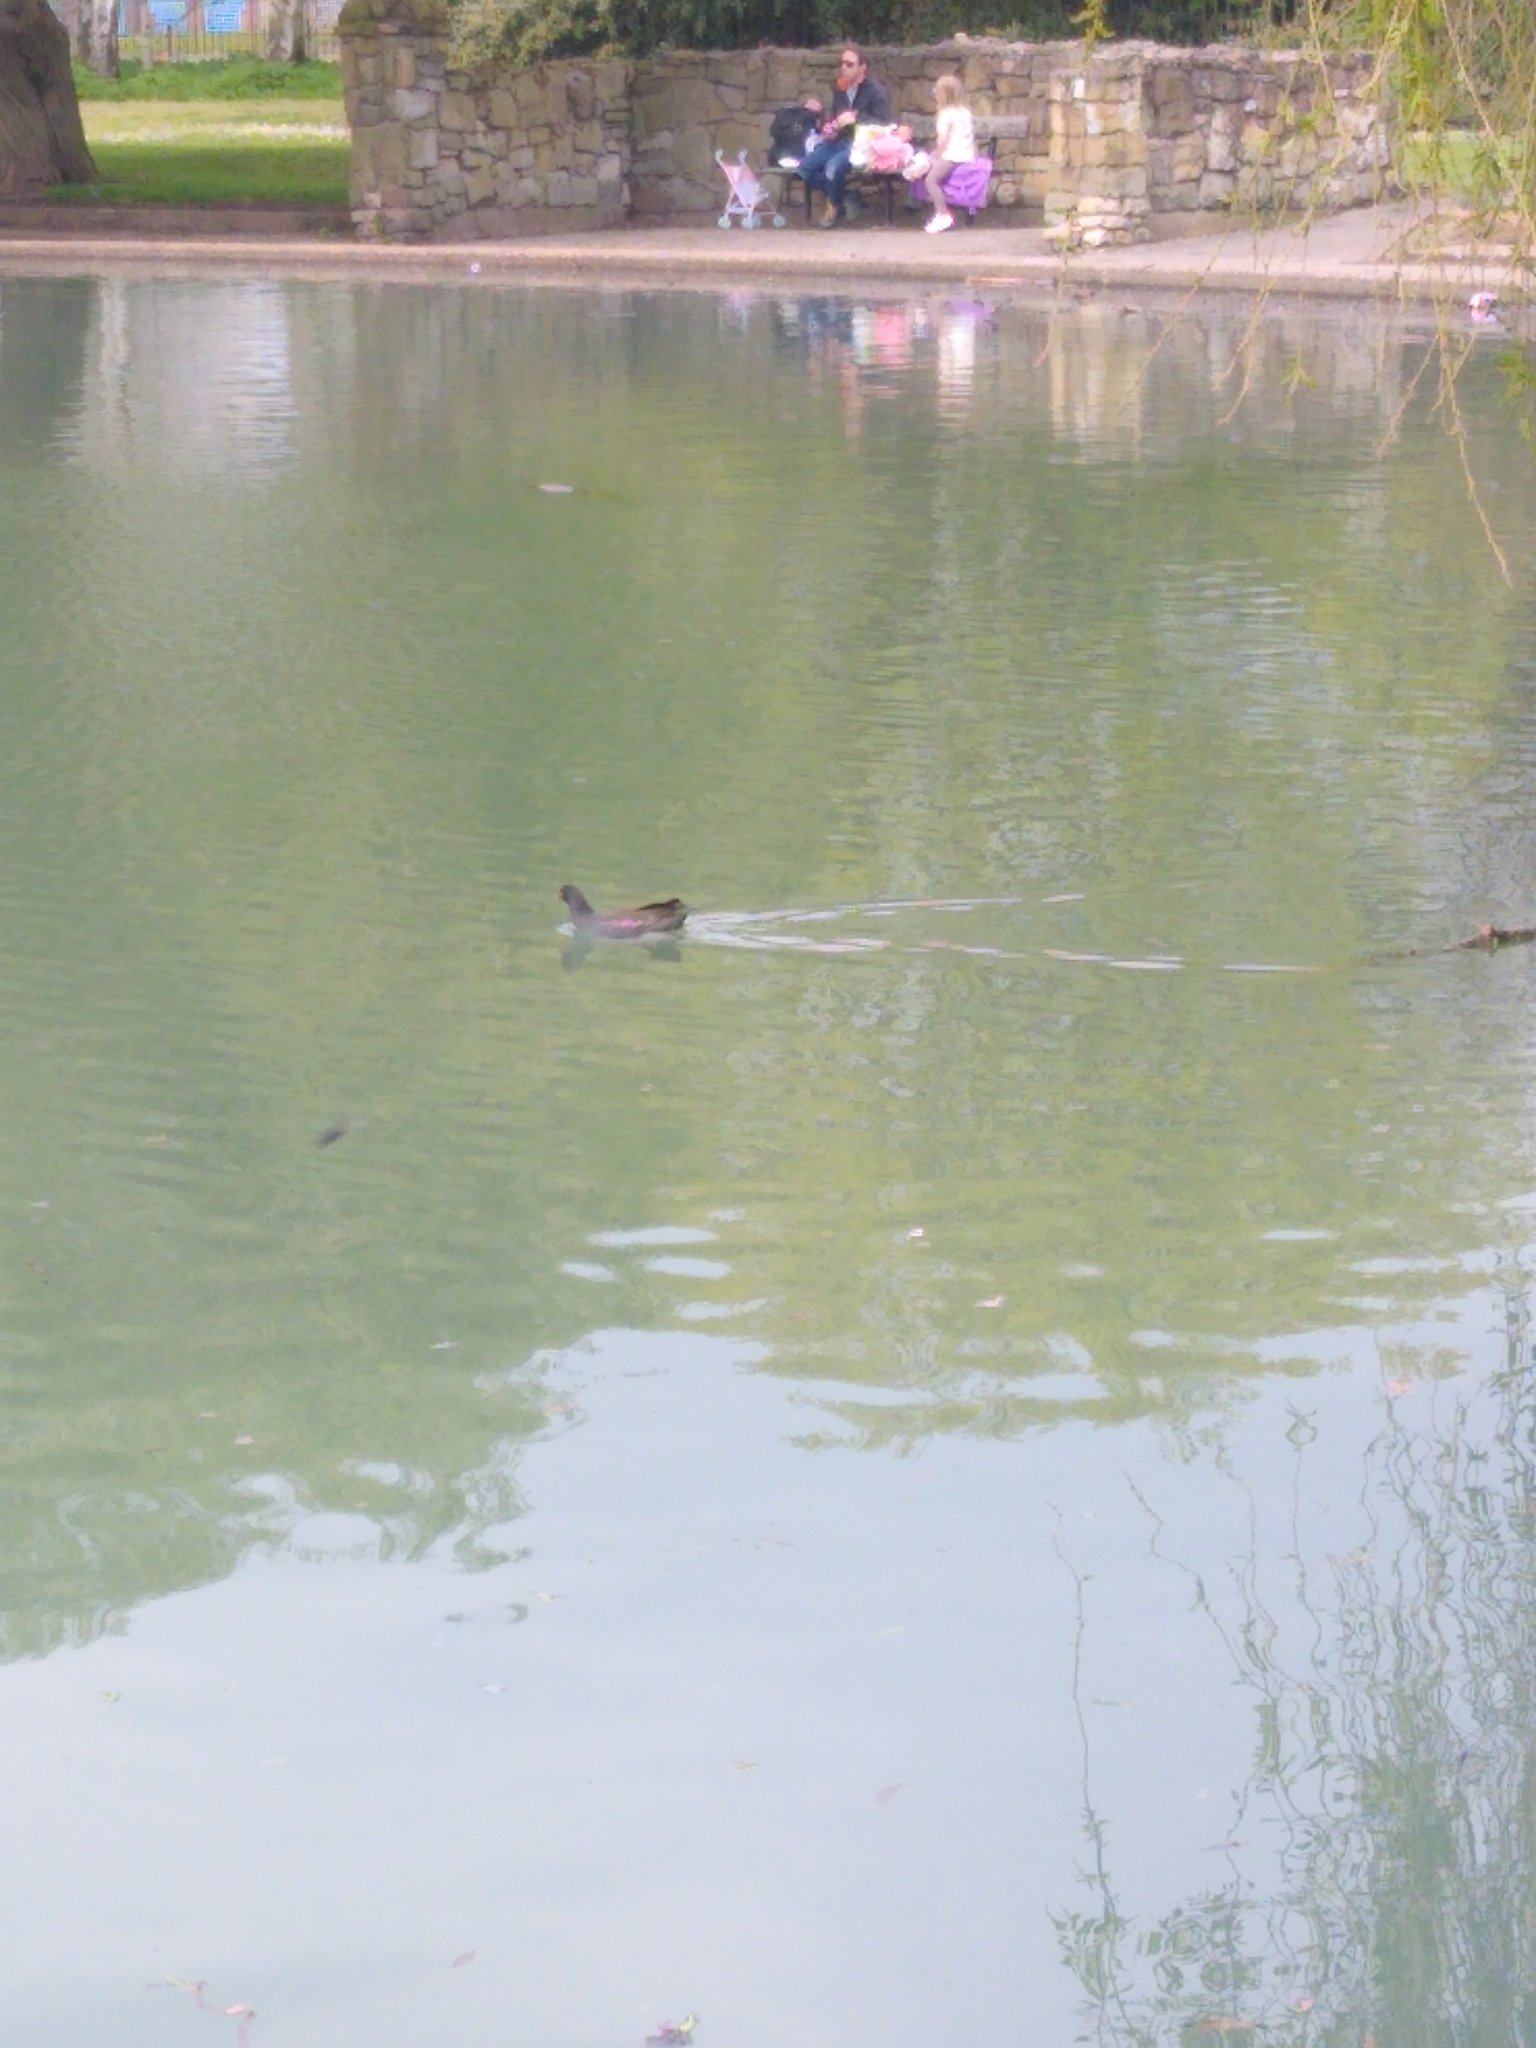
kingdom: Animalia
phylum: Chordata
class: Aves
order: Gruiformes
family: Rallidae
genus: Gallinula
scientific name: Gallinula chloropus
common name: Common moorhen
